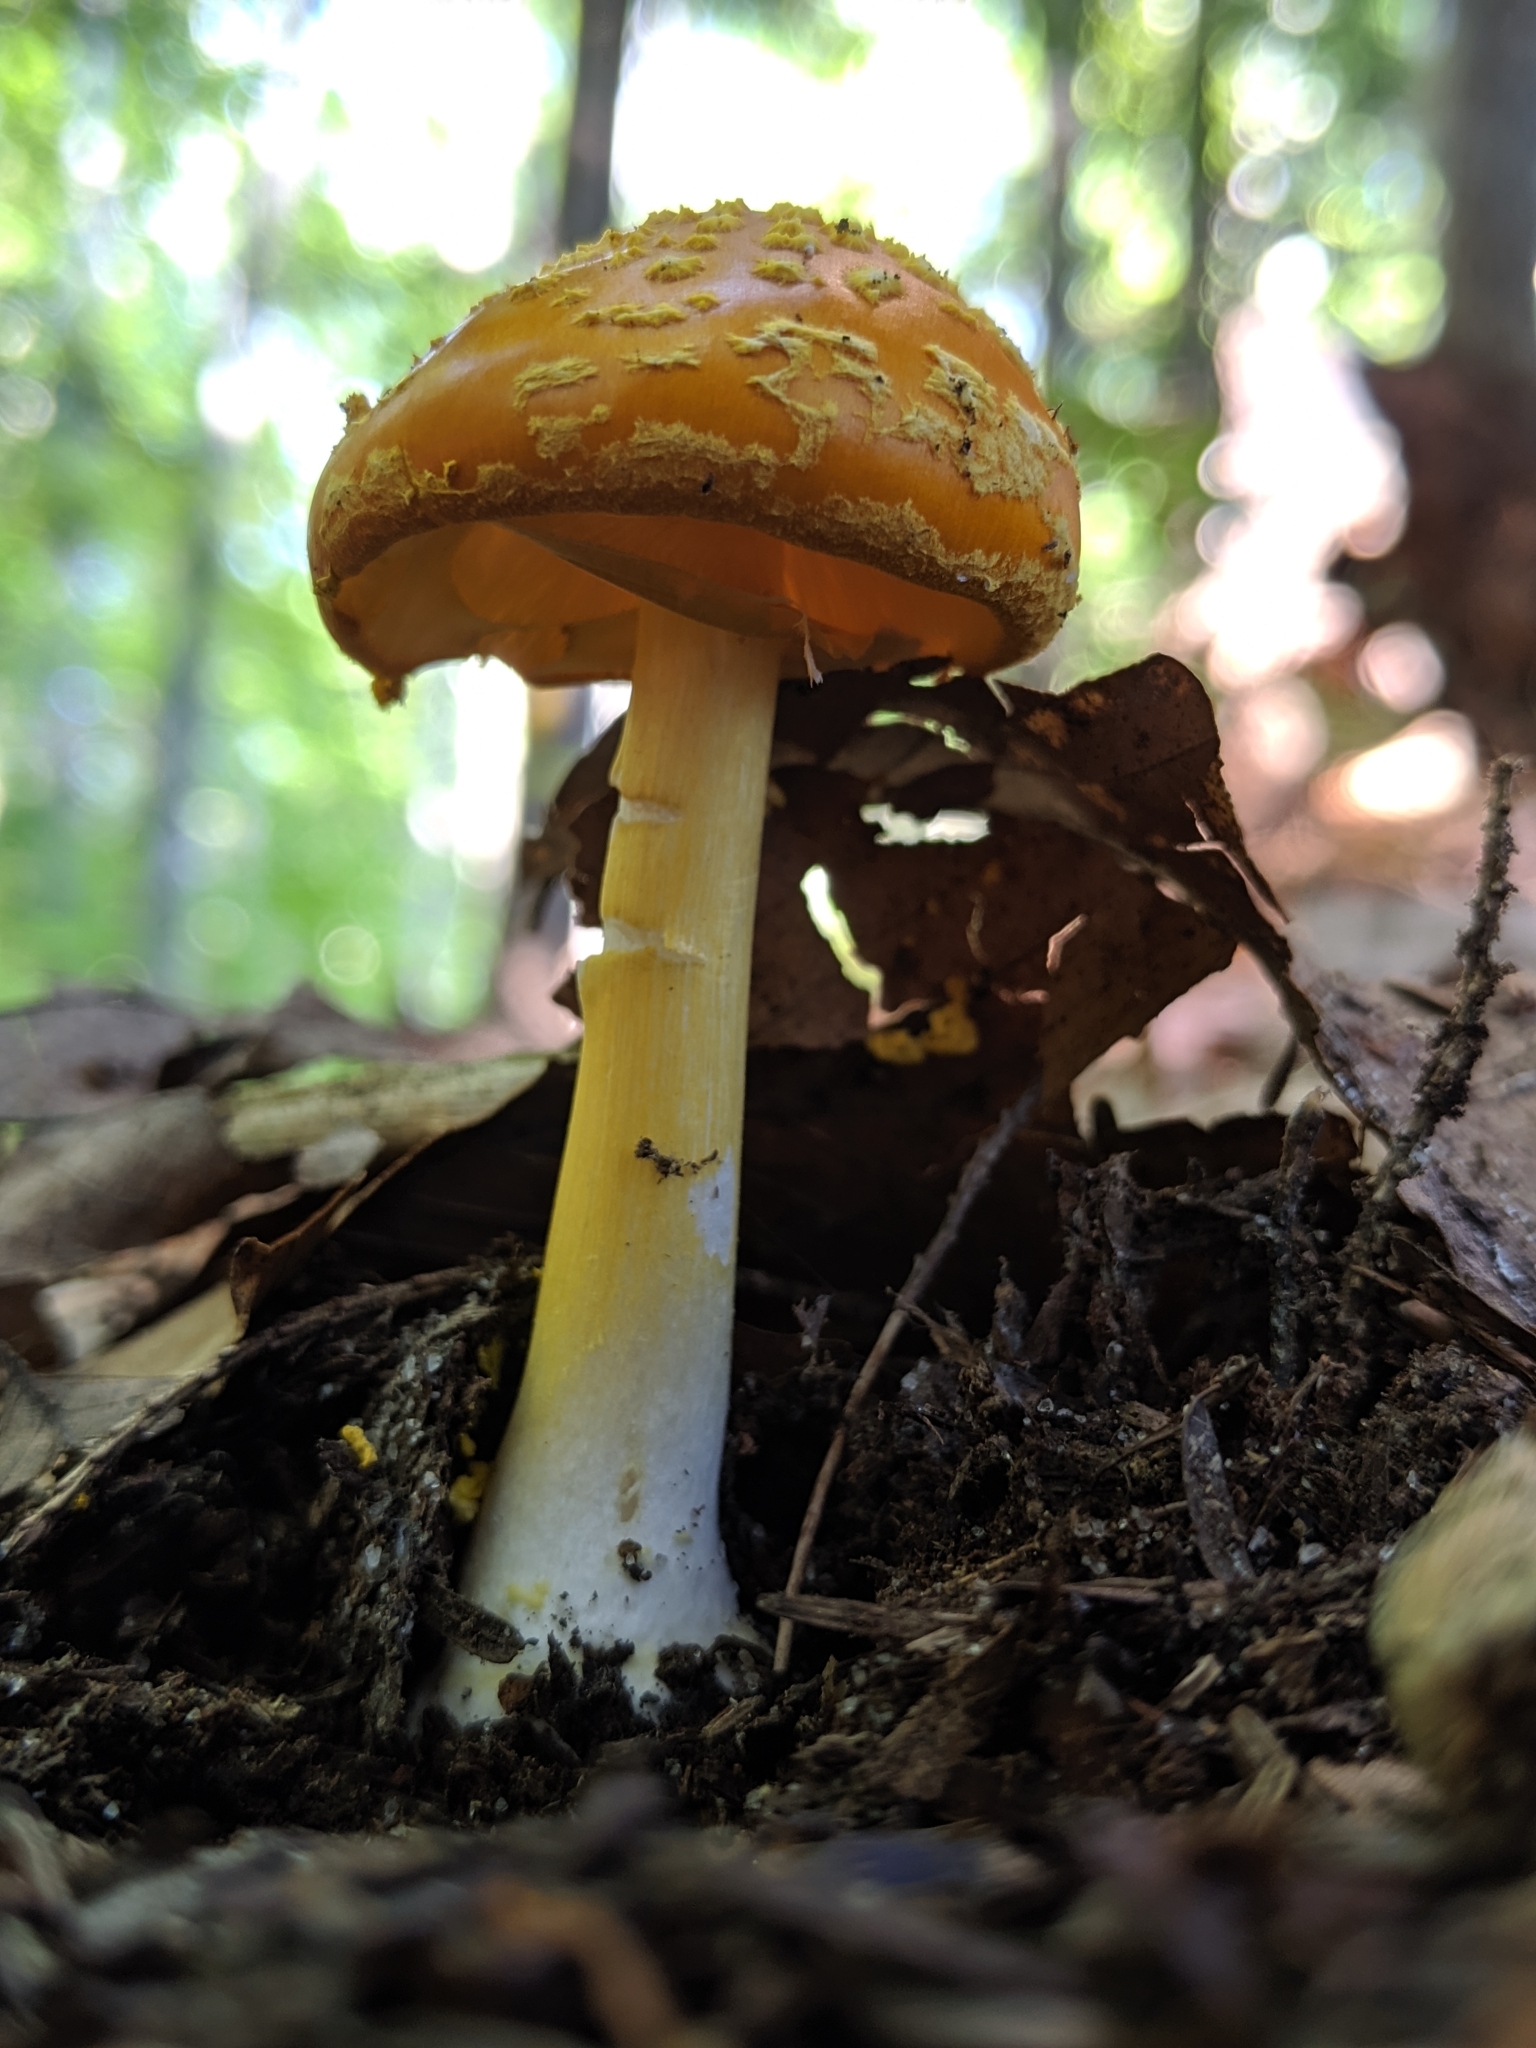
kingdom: Fungi
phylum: Basidiomycota
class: Agaricomycetes
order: Agaricales
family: Amanitaceae
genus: Amanita
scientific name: Amanita flavoconia
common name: Yellow patches
